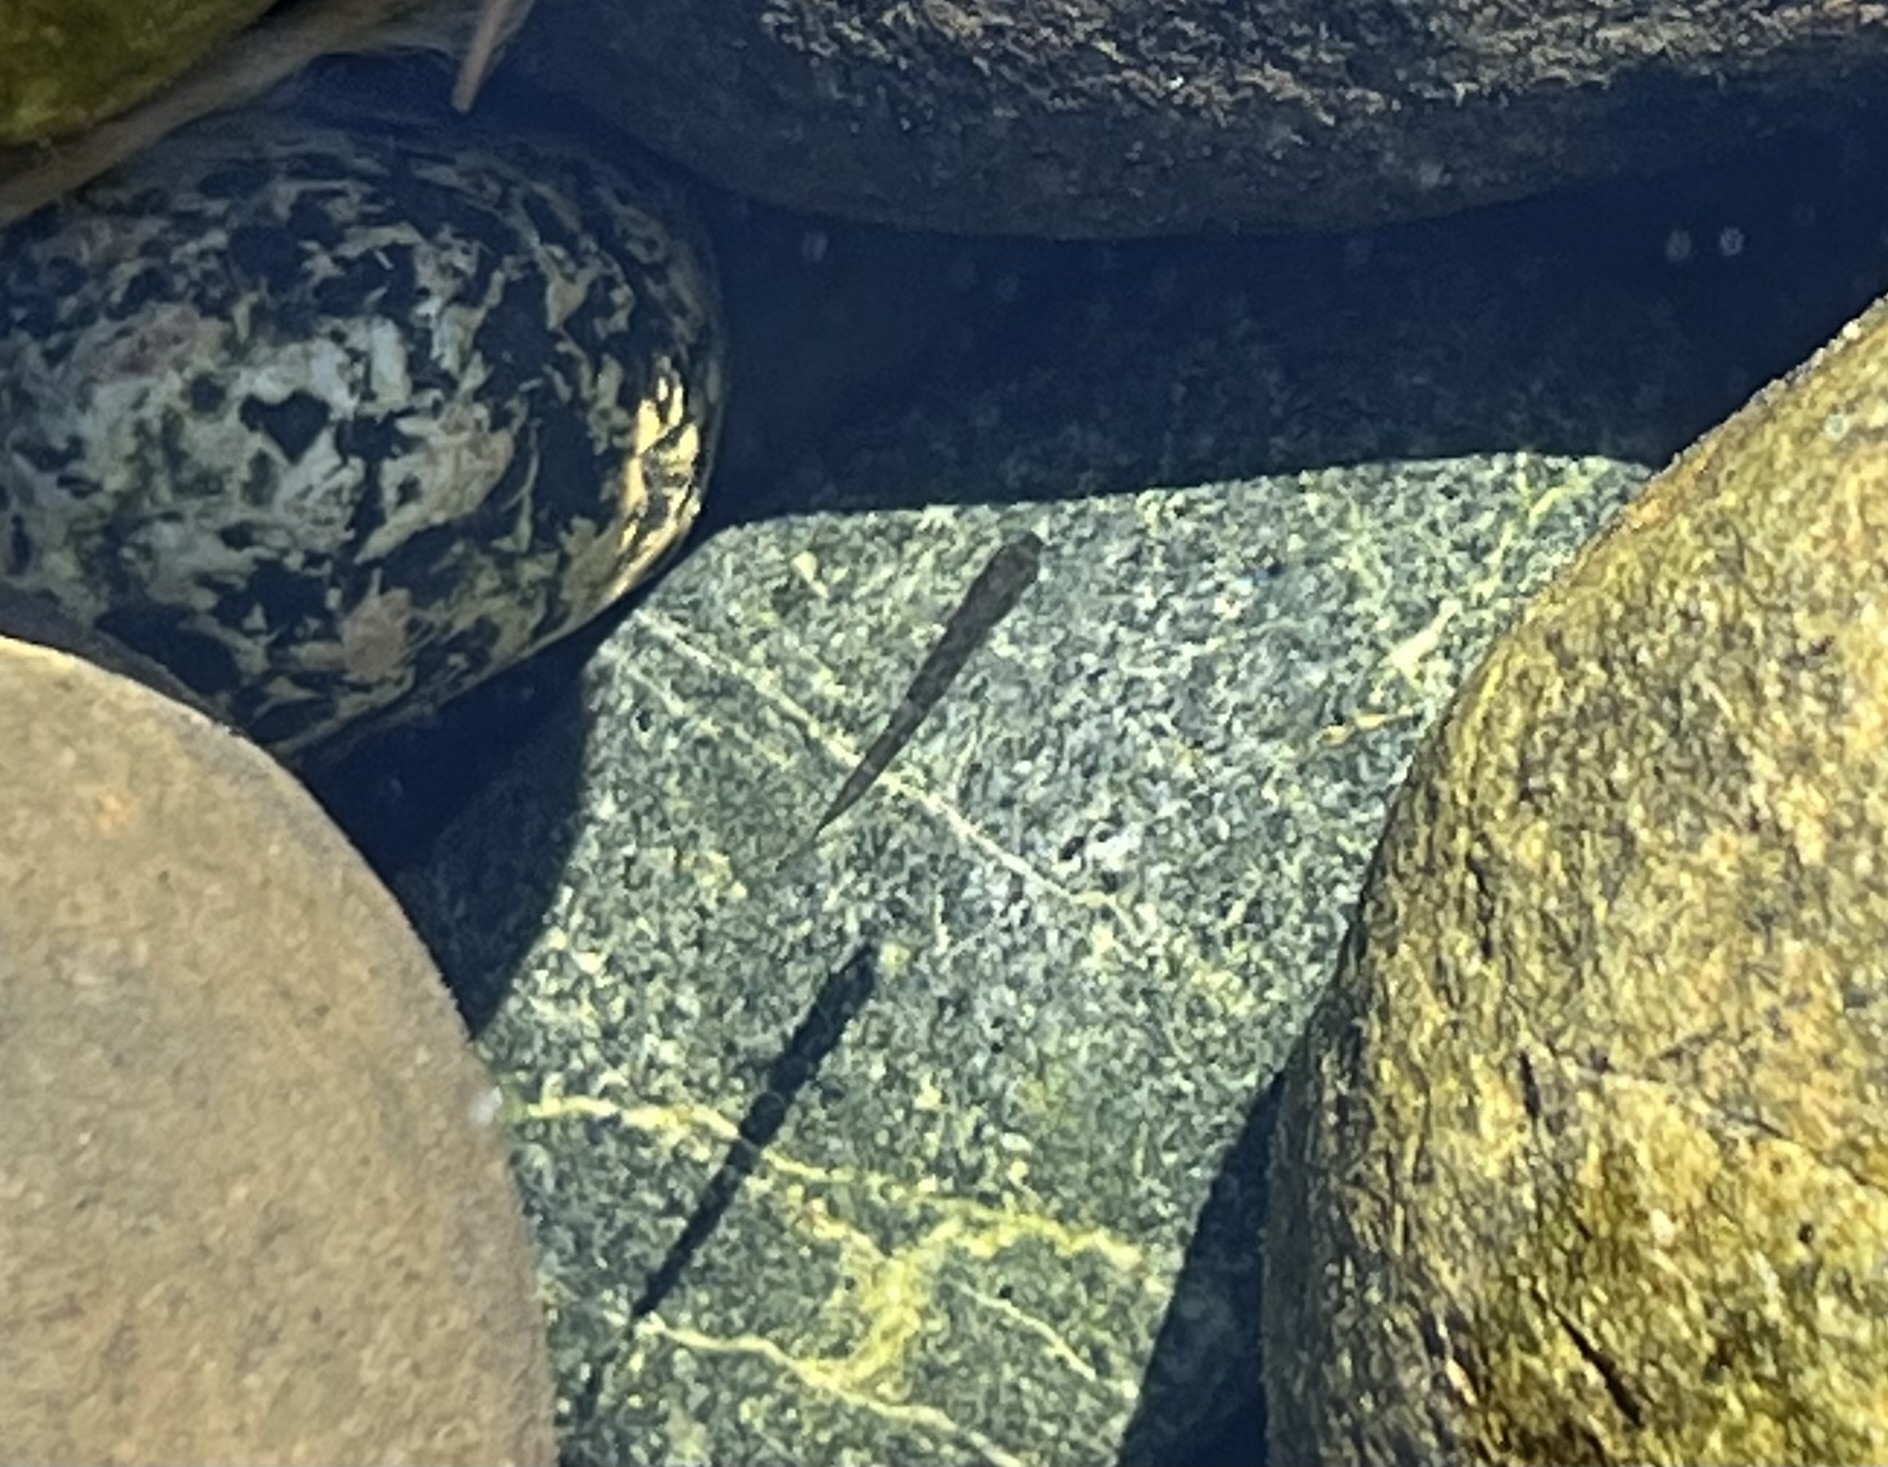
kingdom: Animalia
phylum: Chordata
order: Gasterosteiformes
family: Gasterosteidae
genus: Gasterosteus
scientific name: Gasterosteus aculeatus
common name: Three-spined stickleback
